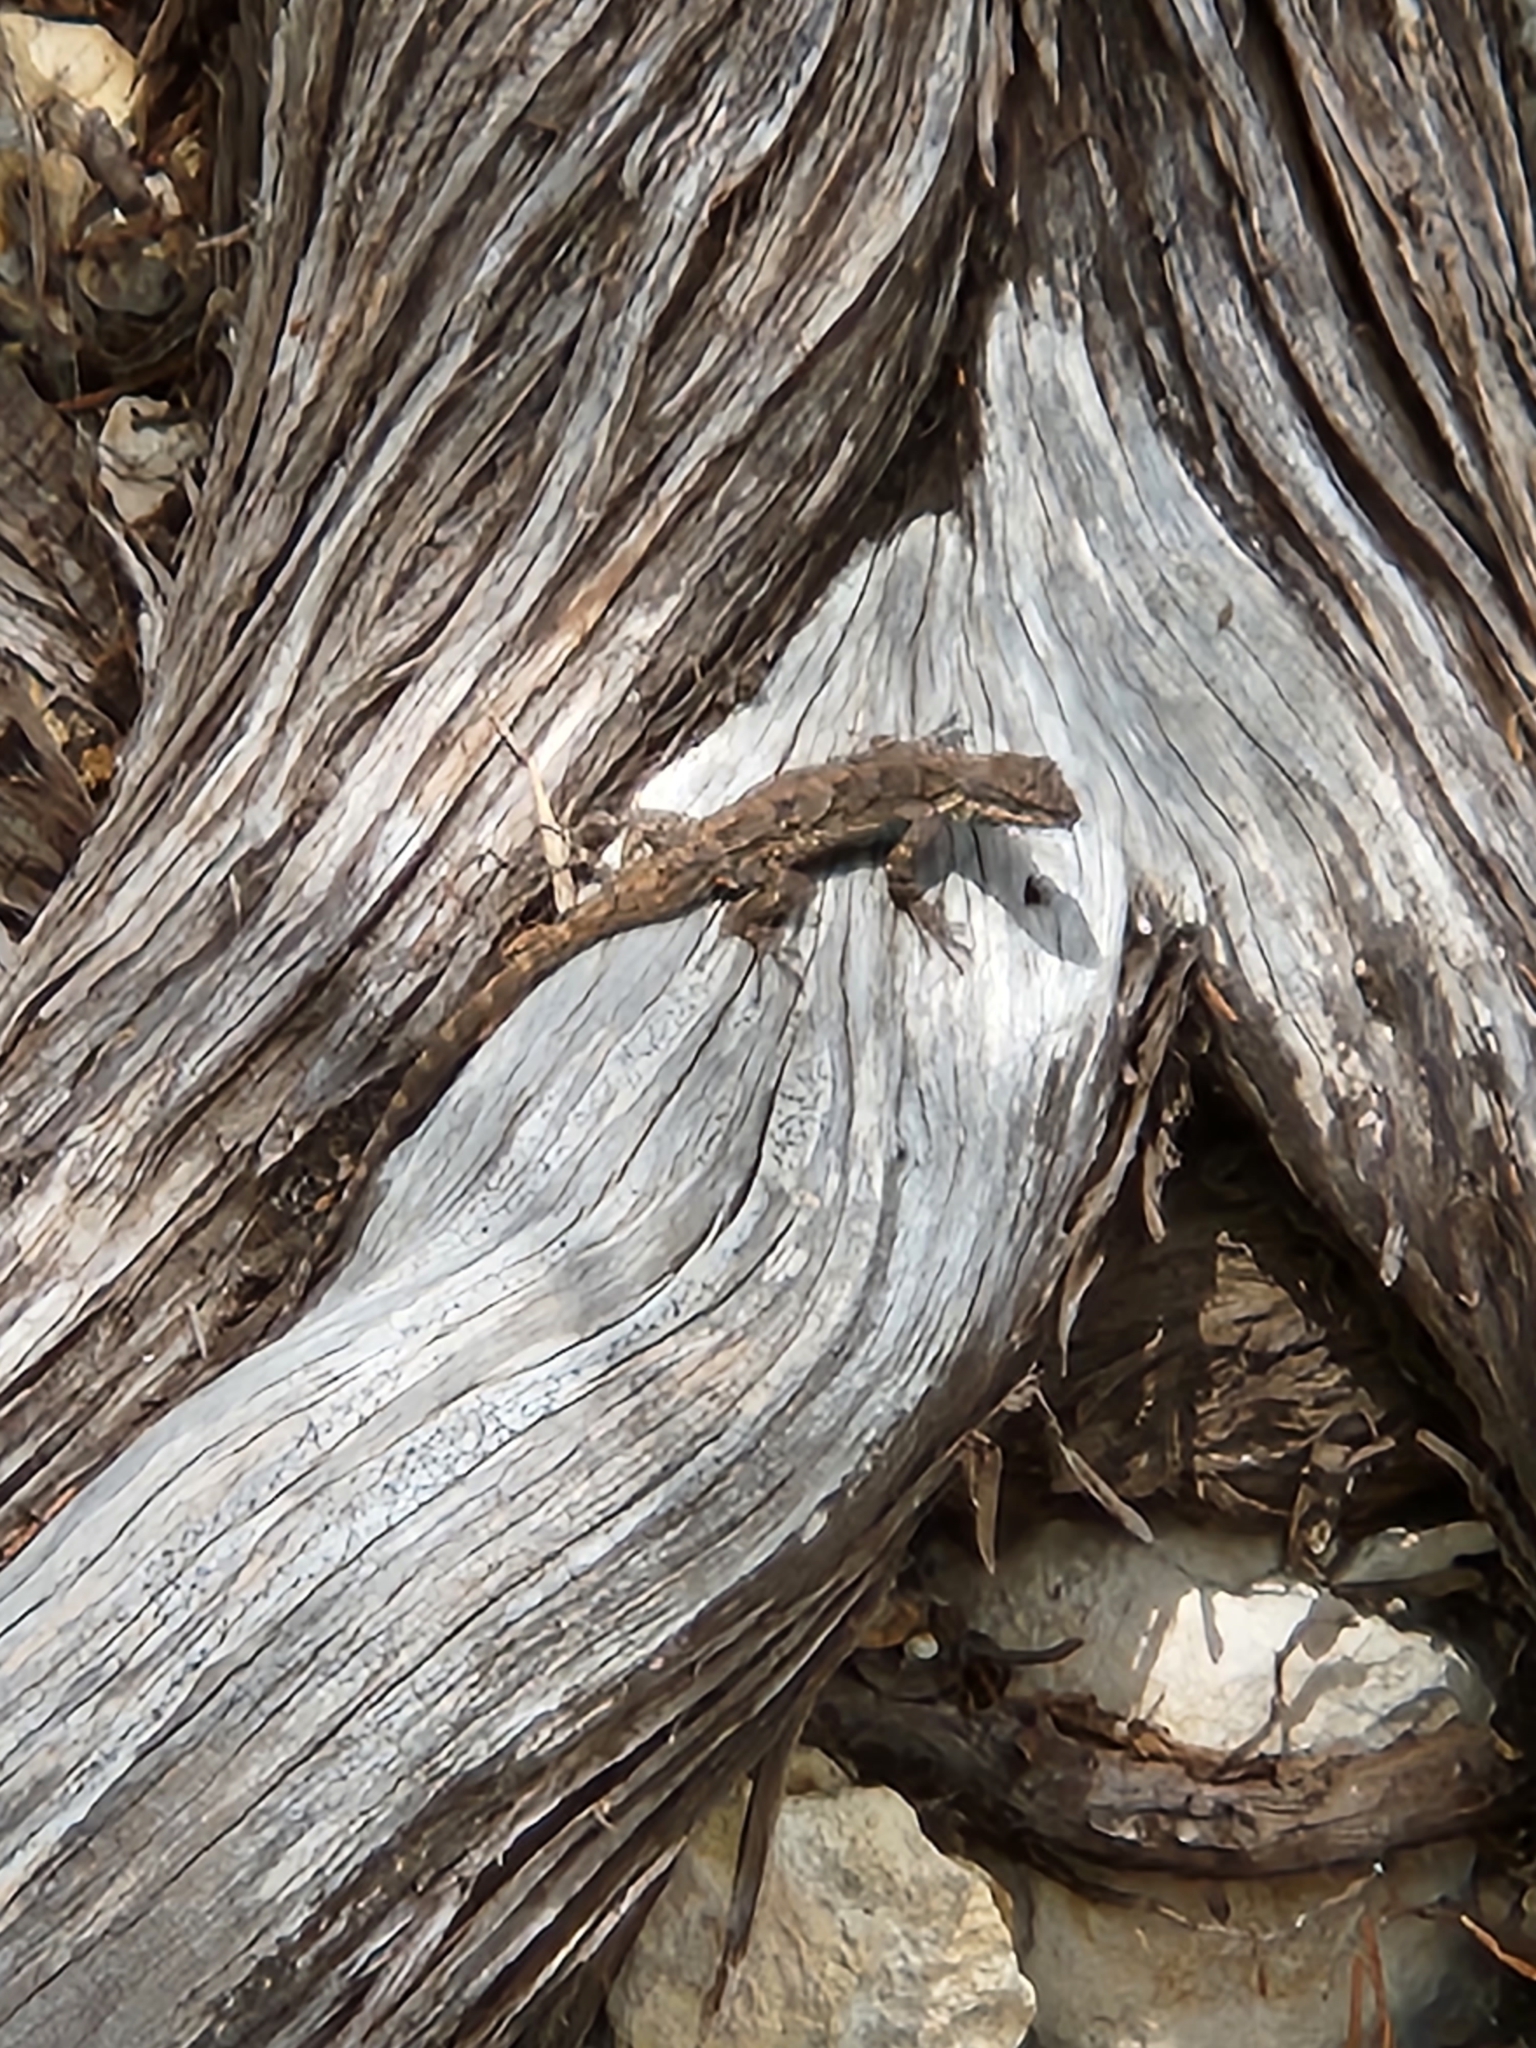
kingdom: Animalia
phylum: Chordata
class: Squamata
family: Phrynosomatidae
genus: Urosaurus
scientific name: Urosaurus ornatus
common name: Ornate tree lizard
